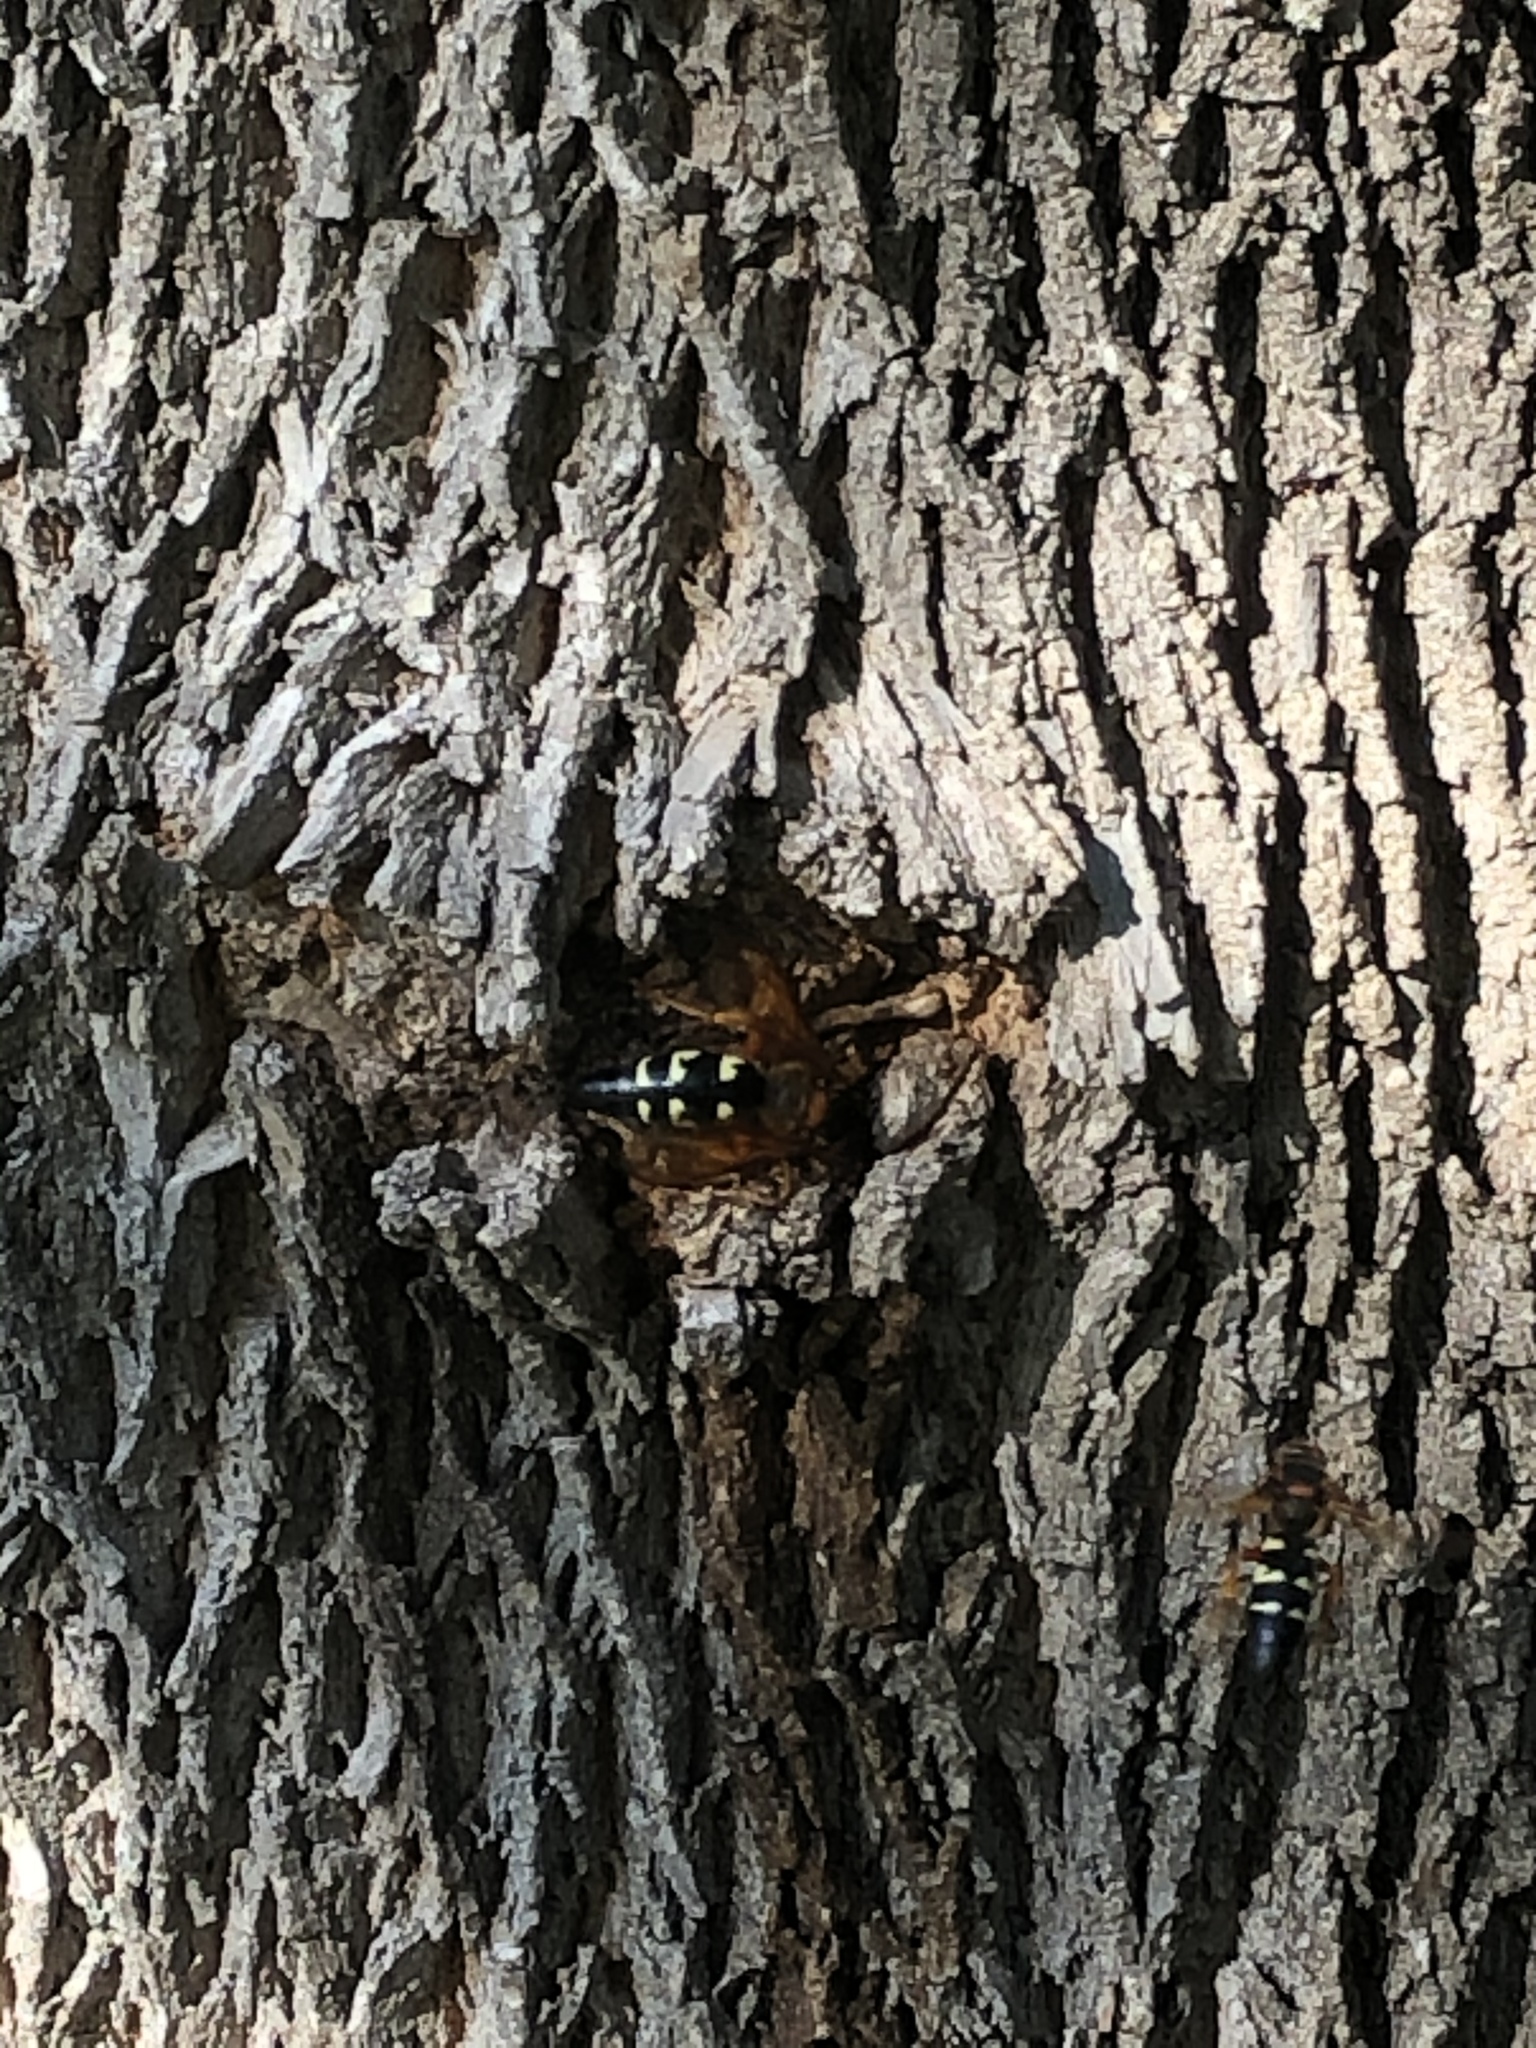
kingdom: Animalia
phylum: Arthropoda
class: Insecta
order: Hymenoptera
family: Crabronidae
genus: Sphecius
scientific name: Sphecius speciosus
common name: Cicada killer
